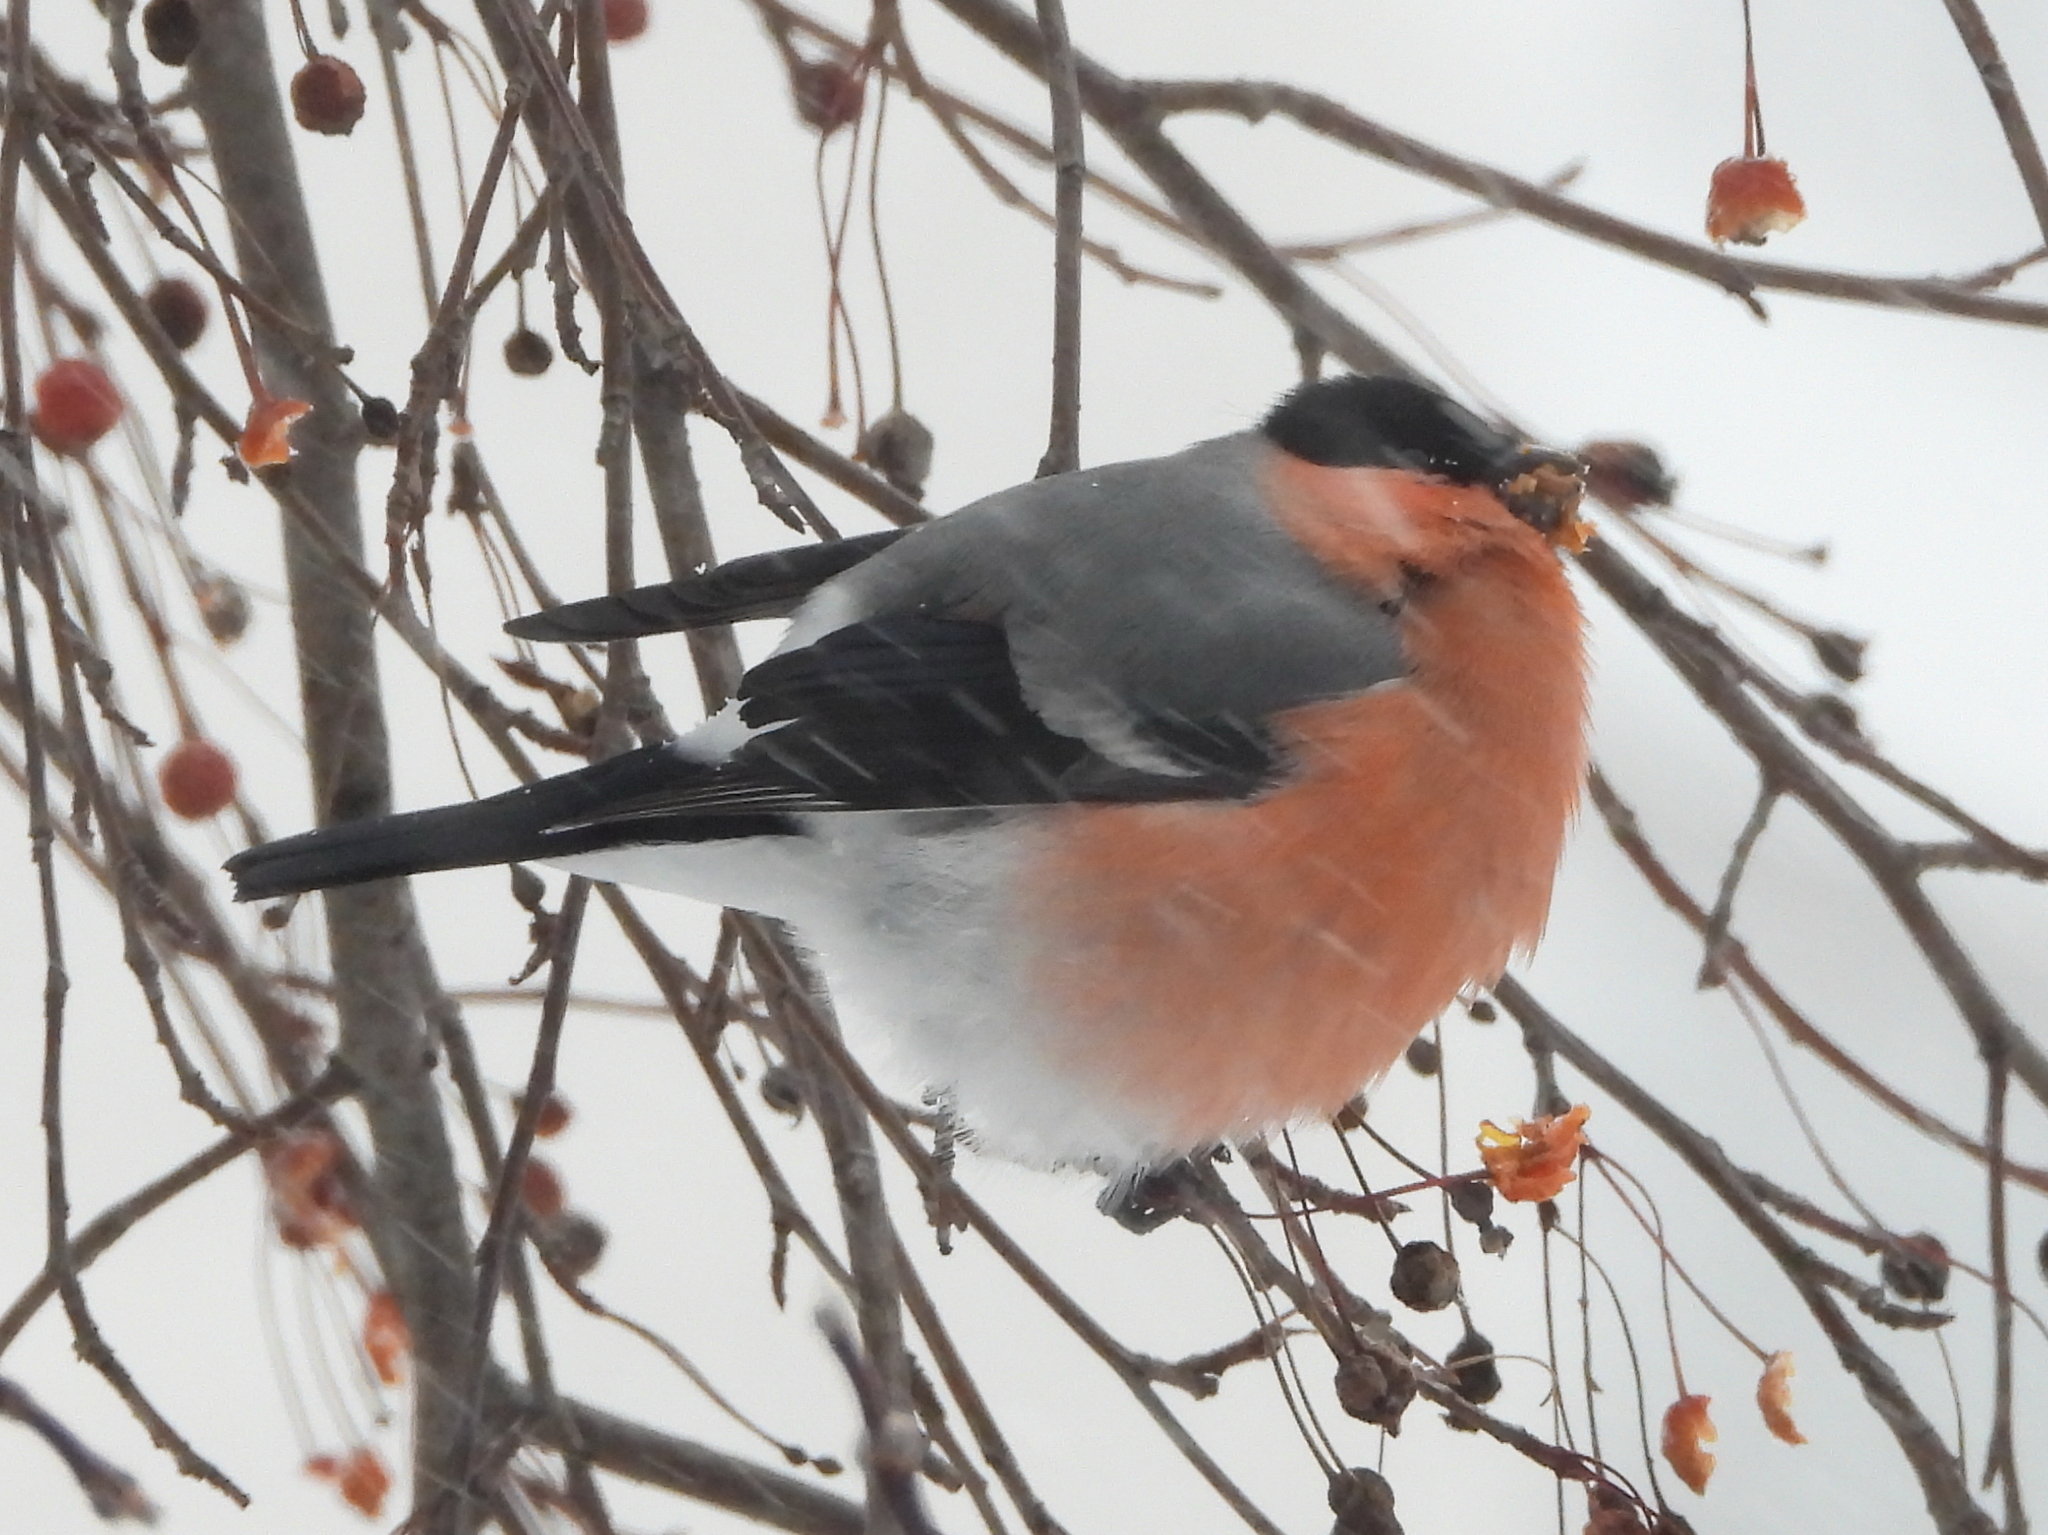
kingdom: Animalia
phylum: Chordata
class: Aves
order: Passeriformes
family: Fringillidae
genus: Pyrrhula
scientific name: Pyrrhula pyrrhula
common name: Eurasian bullfinch
